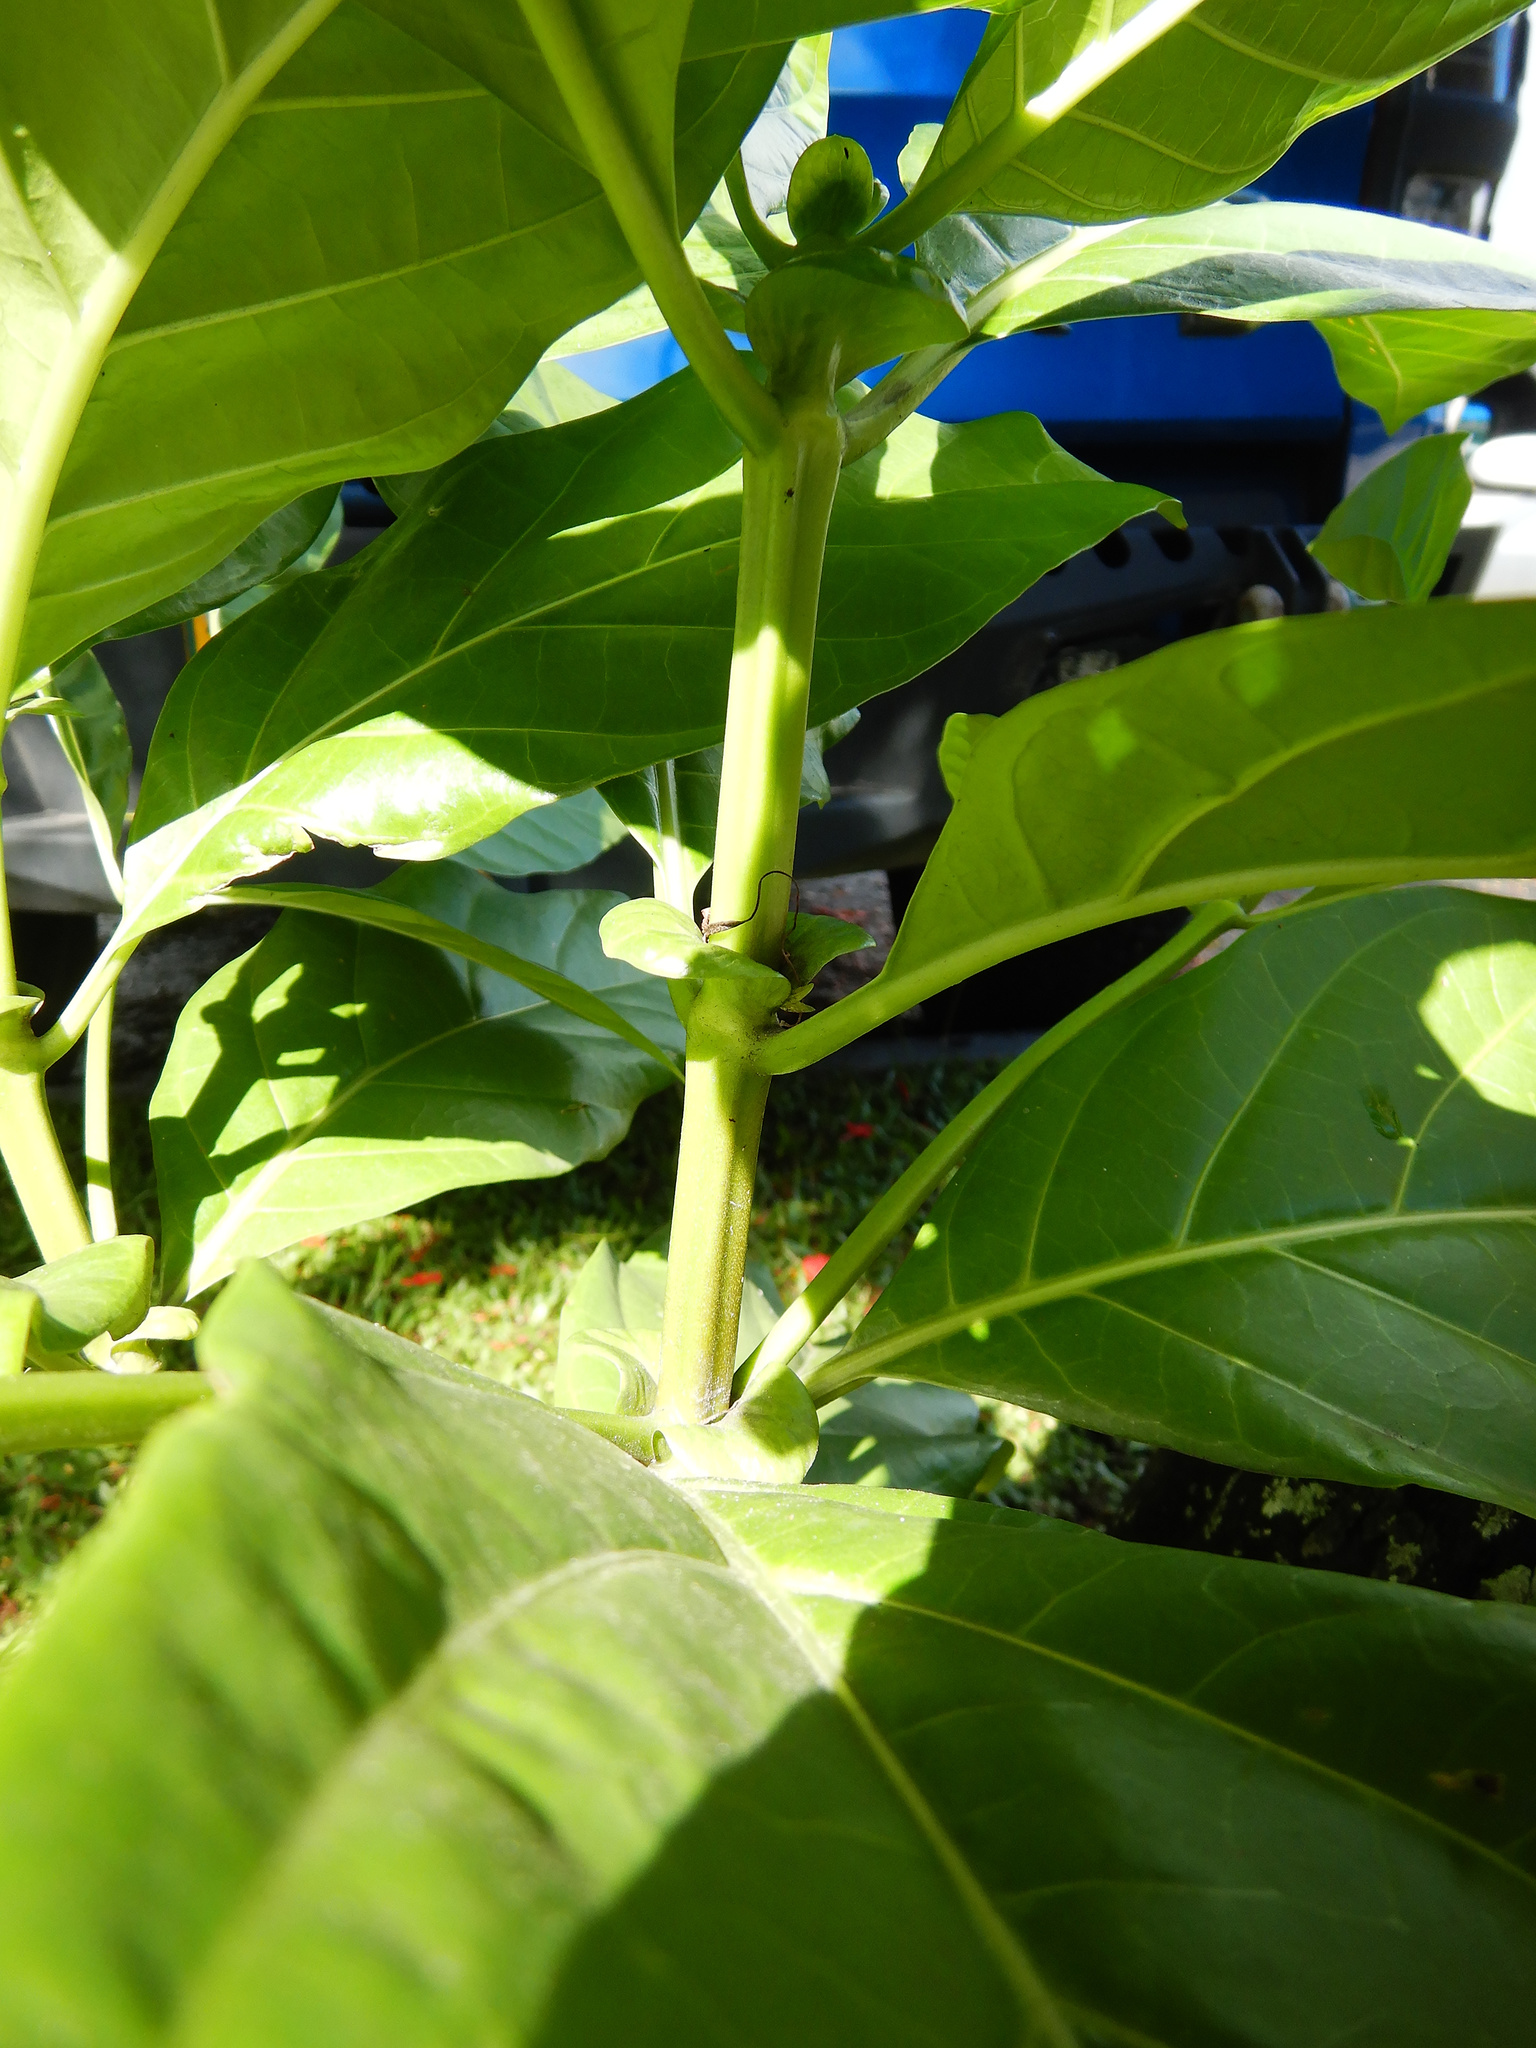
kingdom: Plantae
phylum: Tracheophyta
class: Magnoliopsida
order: Gentianales
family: Rubiaceae
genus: Morinda
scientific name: Morinda citrifolia
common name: Indian-mulberry
